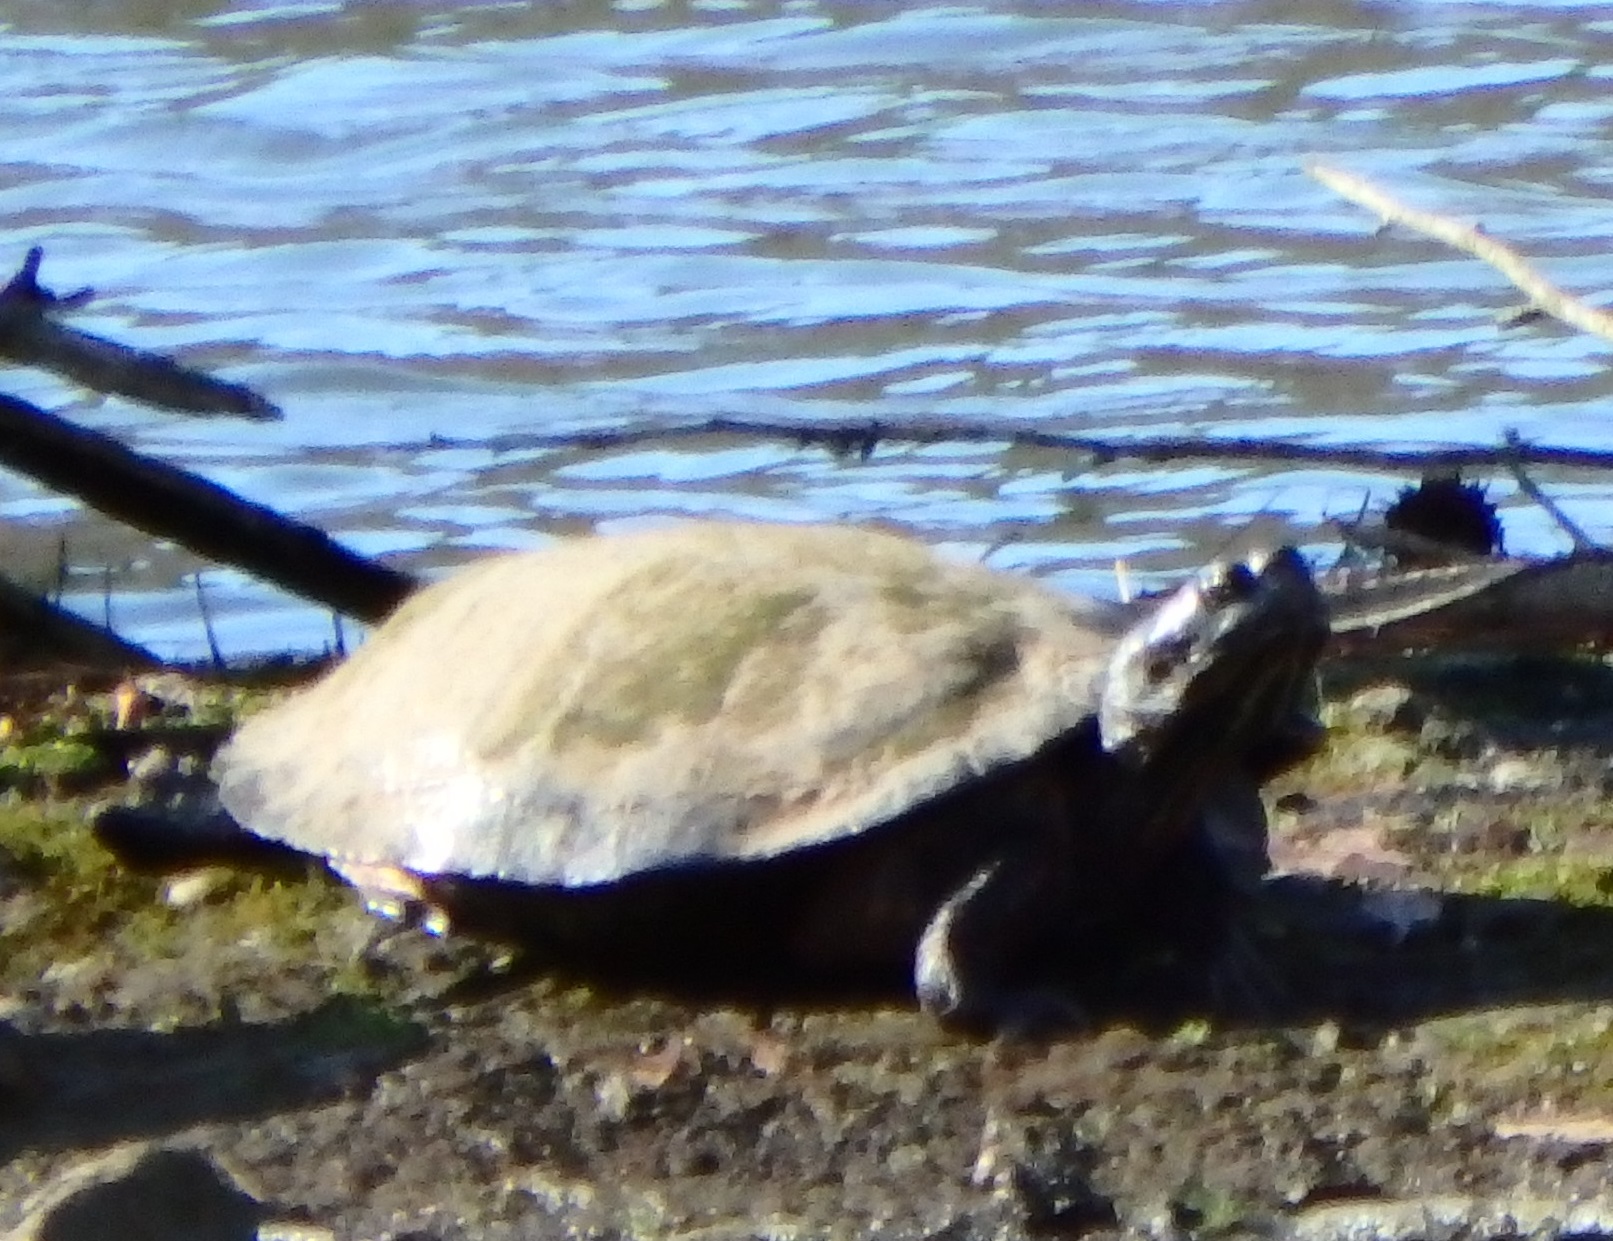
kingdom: Animalia
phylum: Chordata
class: Testudines
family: Emydidae
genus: Trachemys
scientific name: Trachemys scripta
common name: Slider
